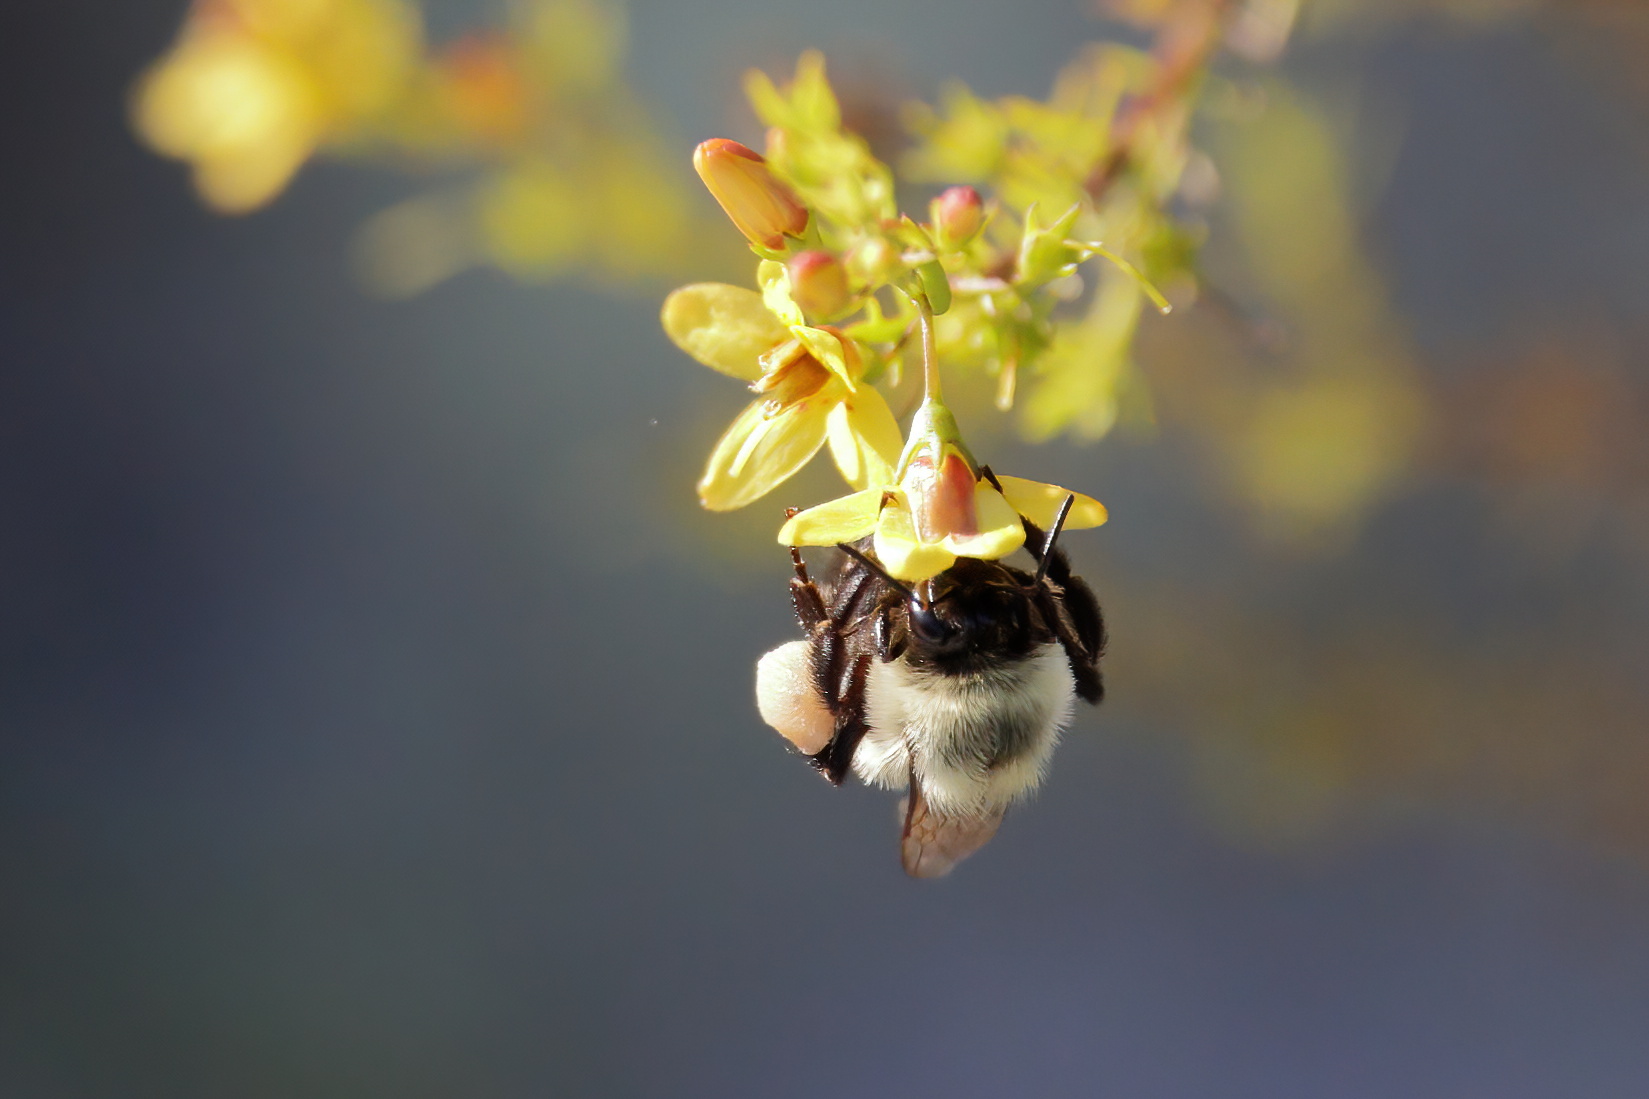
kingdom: Animalia
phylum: Arthropoda
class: Insecta
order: Hymenoptera
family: Apidae
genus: Bombus
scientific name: Bombus impatiens
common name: Common eastern bumble bee
